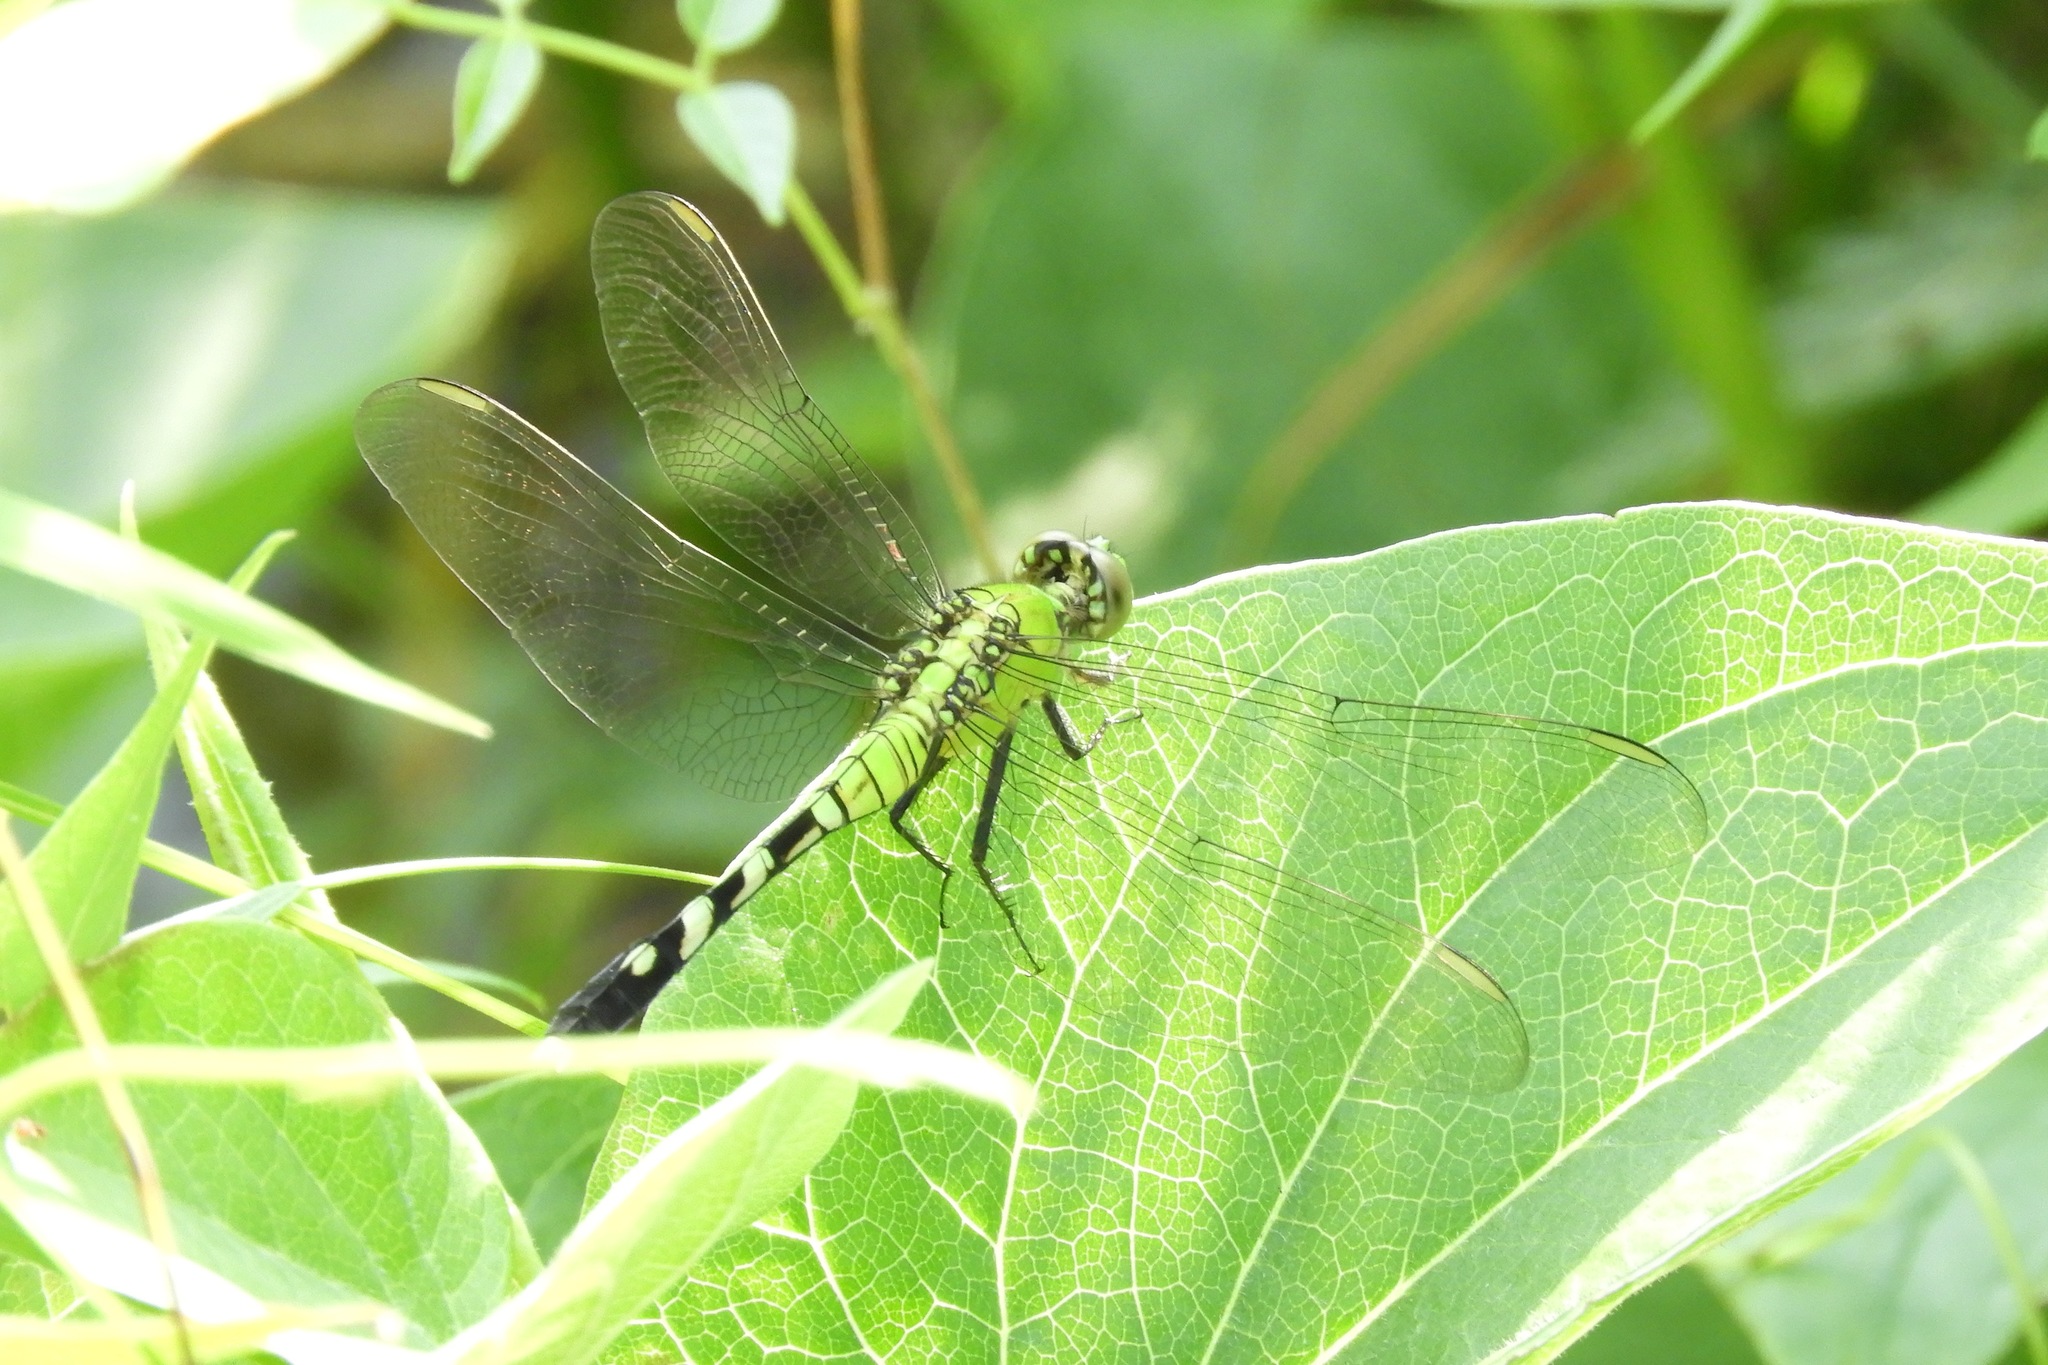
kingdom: Animalia
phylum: Arthropoda
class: Insecta
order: Odonata
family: Libellulidae
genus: Erythemis
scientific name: Erythemis simplicicollis
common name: Eastern pondhawk
